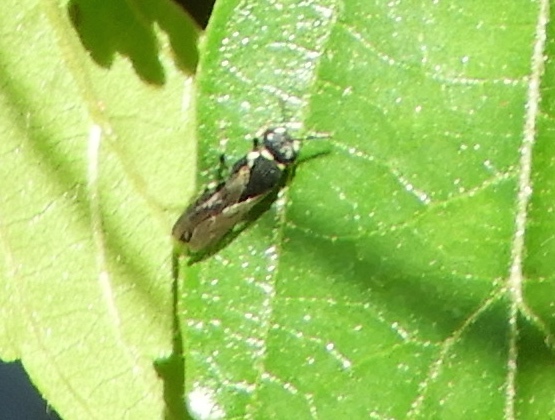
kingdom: Animalia
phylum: Arthropoda
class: Insecta
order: Hymenoptera
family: Colletidae
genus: Hylaeus
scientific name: Hylaeus
